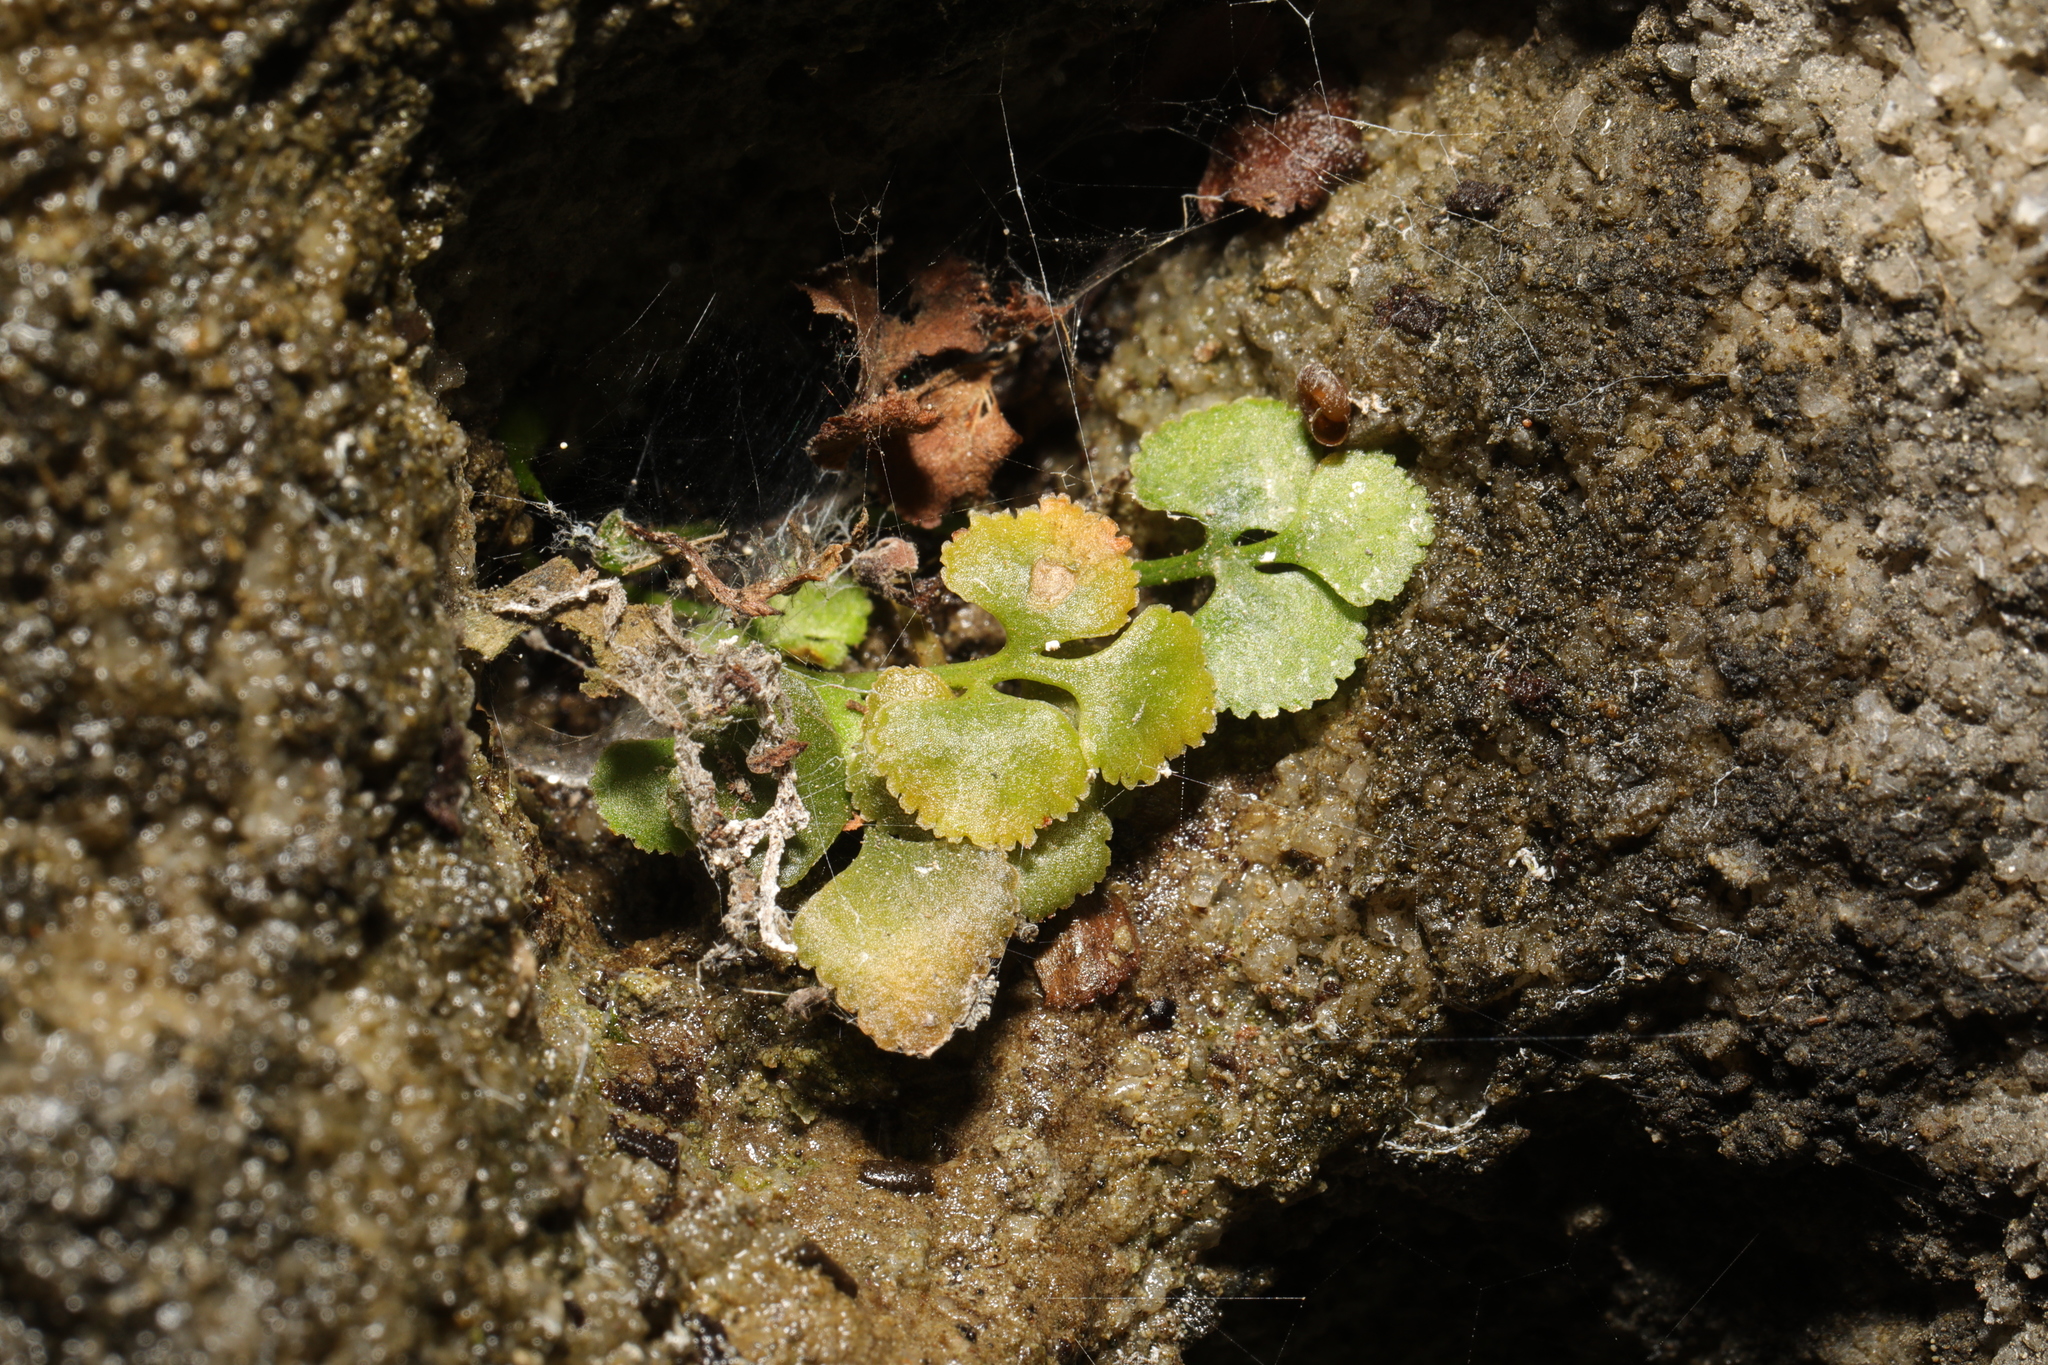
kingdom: Plantae
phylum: Tracheophyta
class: Polypodiopsida
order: Polypodiales
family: Aspleniaceae
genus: Asplenium
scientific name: Asplenium ruta-muraria
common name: Wall-rue
